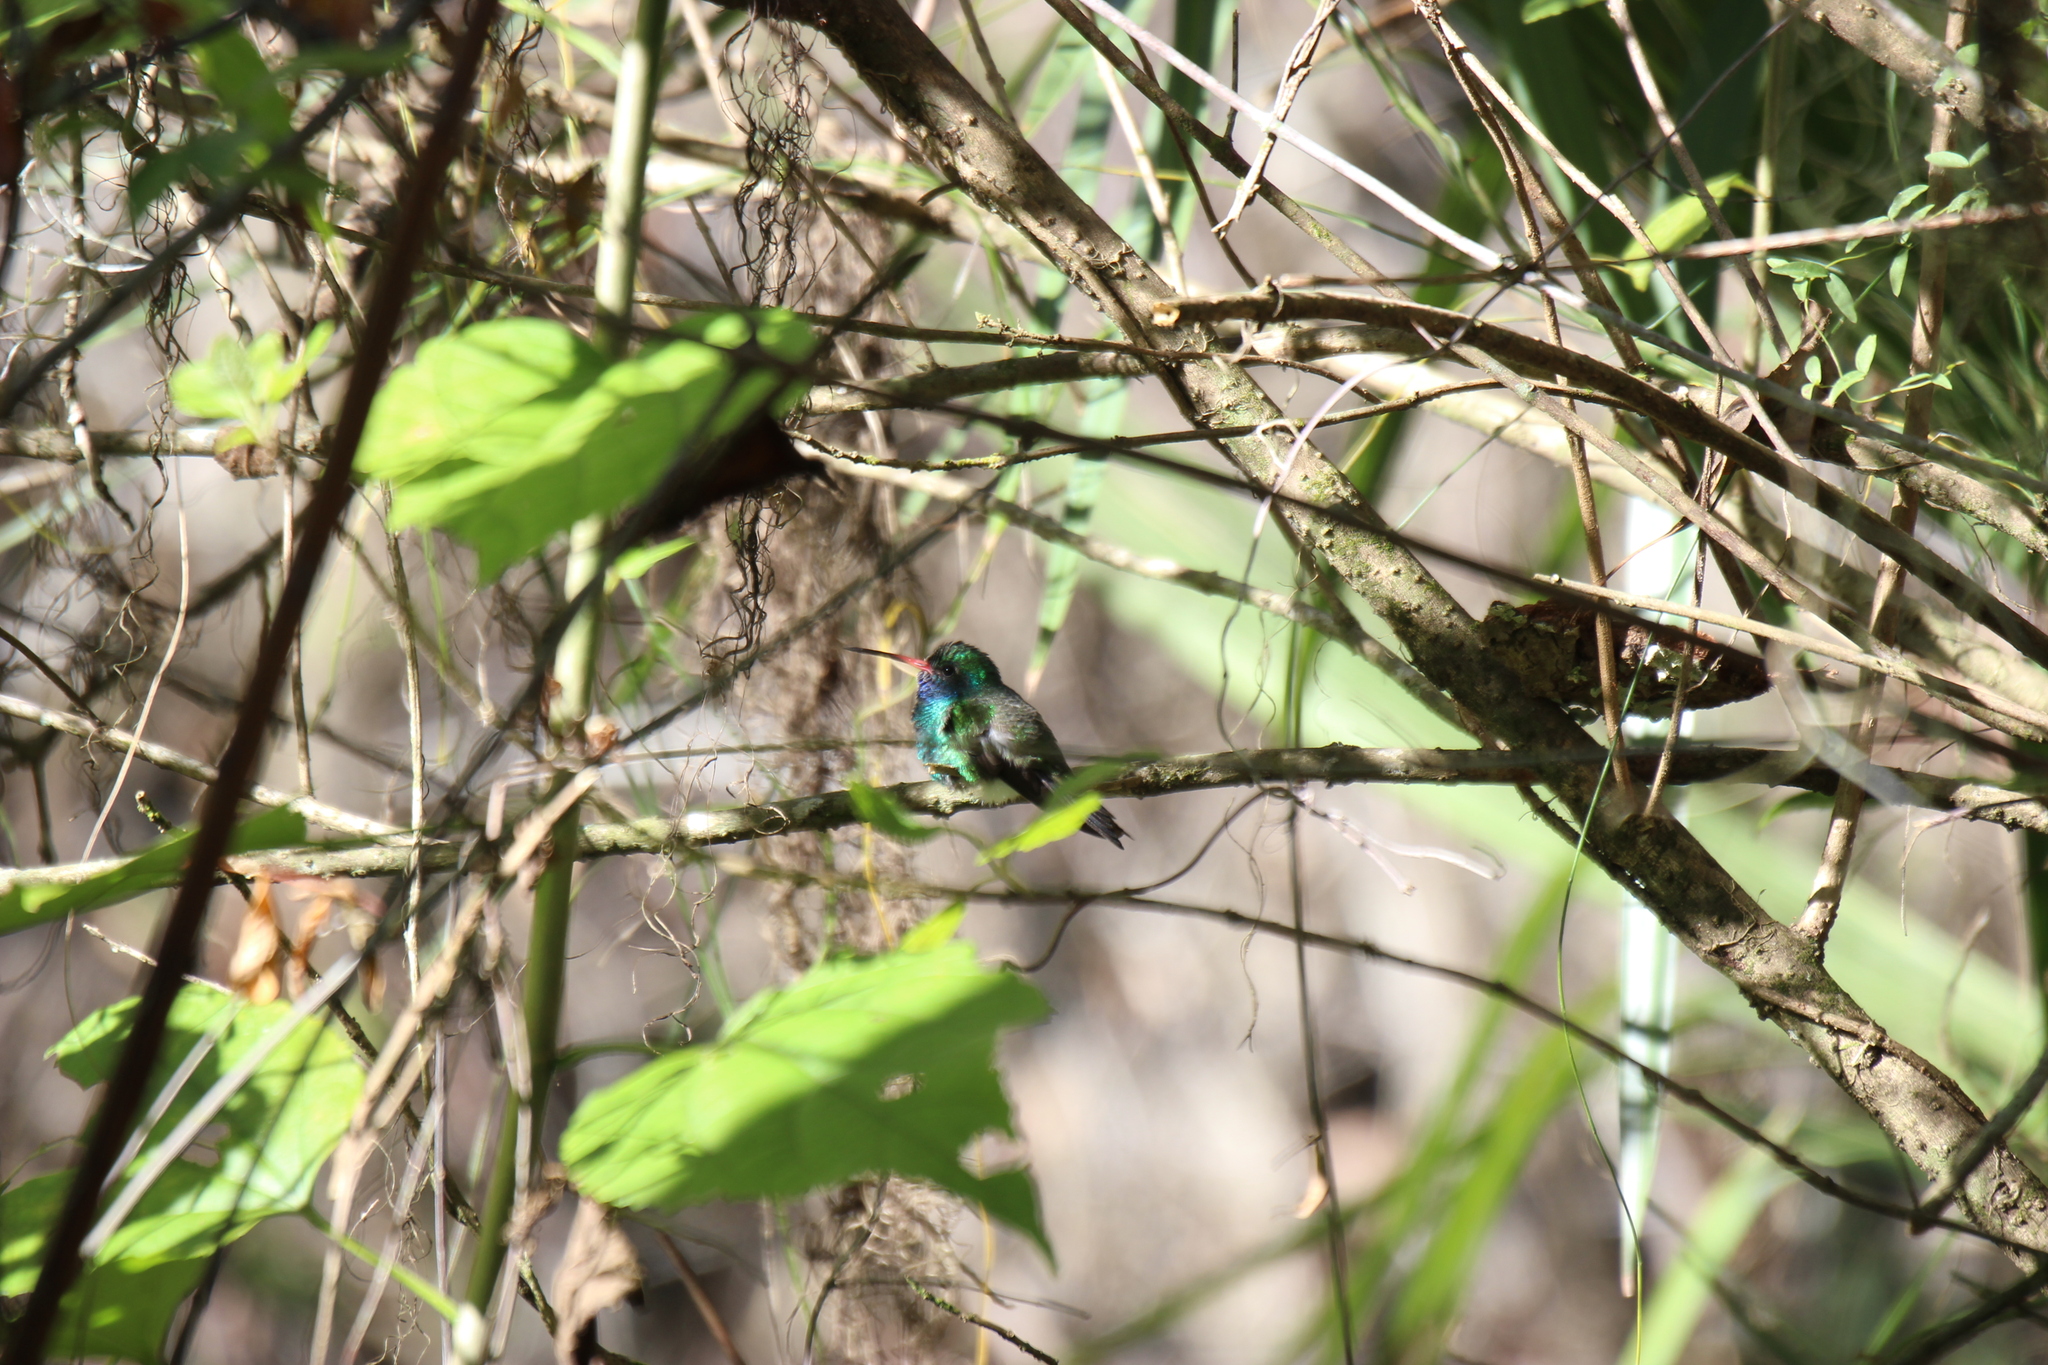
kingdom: Animalia
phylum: Chordata
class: Aves
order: Apodiformes
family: Trochilidae
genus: Cynanthus
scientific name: Cynanthus latirostris
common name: Broad-billed hummingbird
